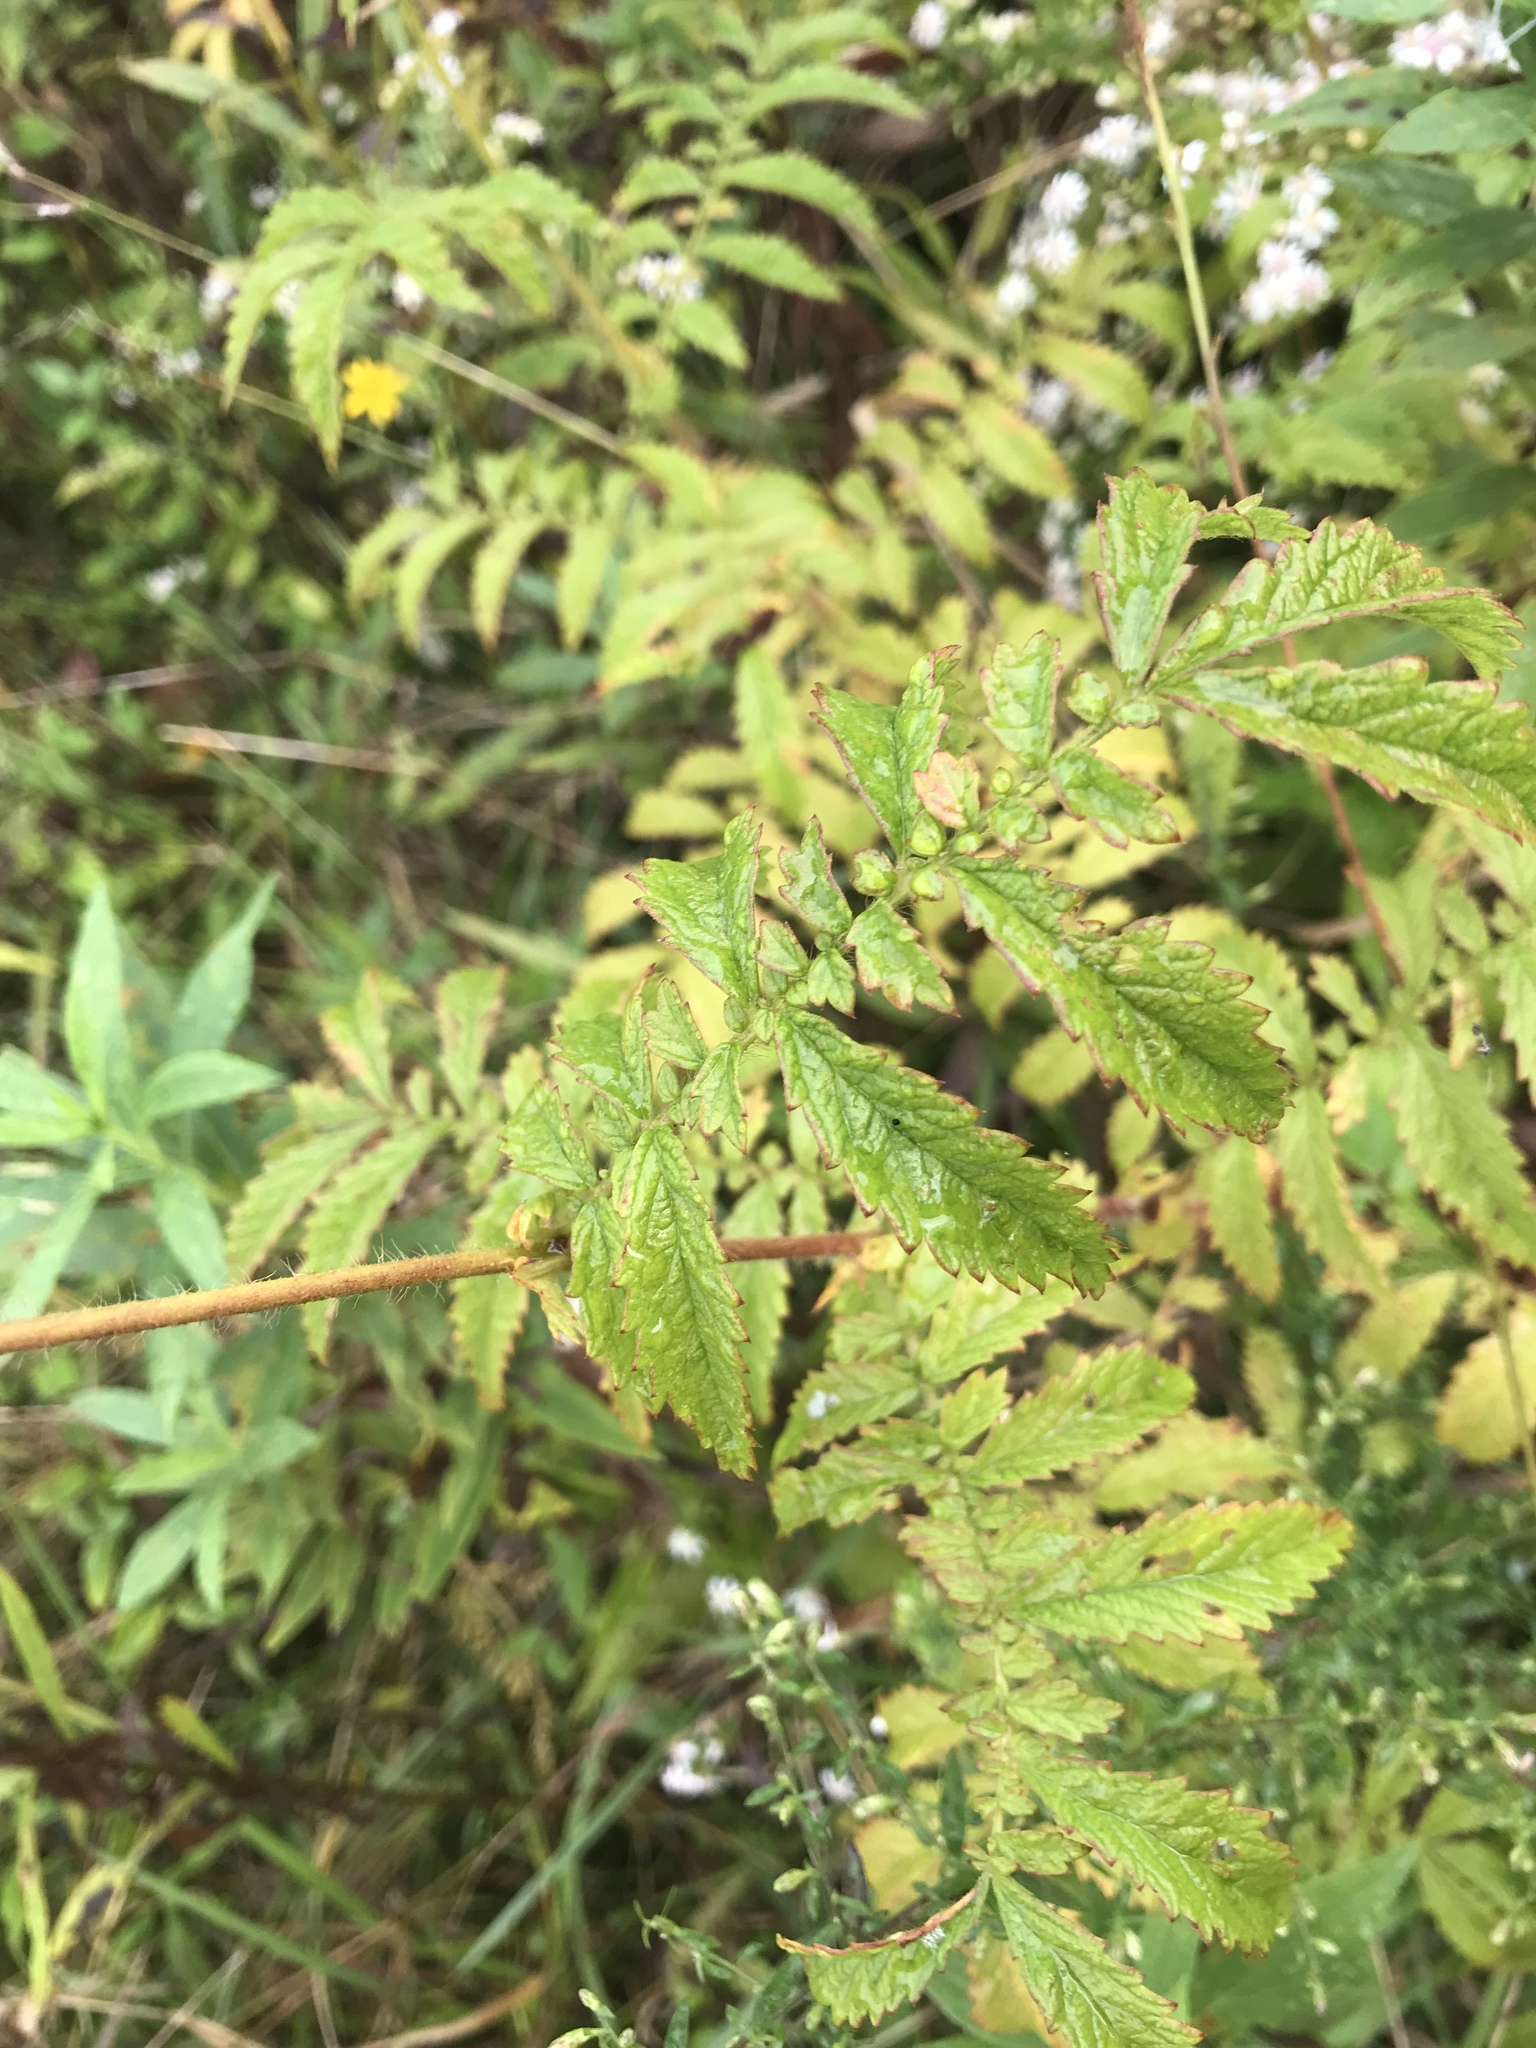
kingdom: Plantae
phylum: Tracheophyta
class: Magnoliopsida
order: Rosales
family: Rosaceae
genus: Agrimonia
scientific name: Agrimonia parviflora
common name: Harvest-lice
